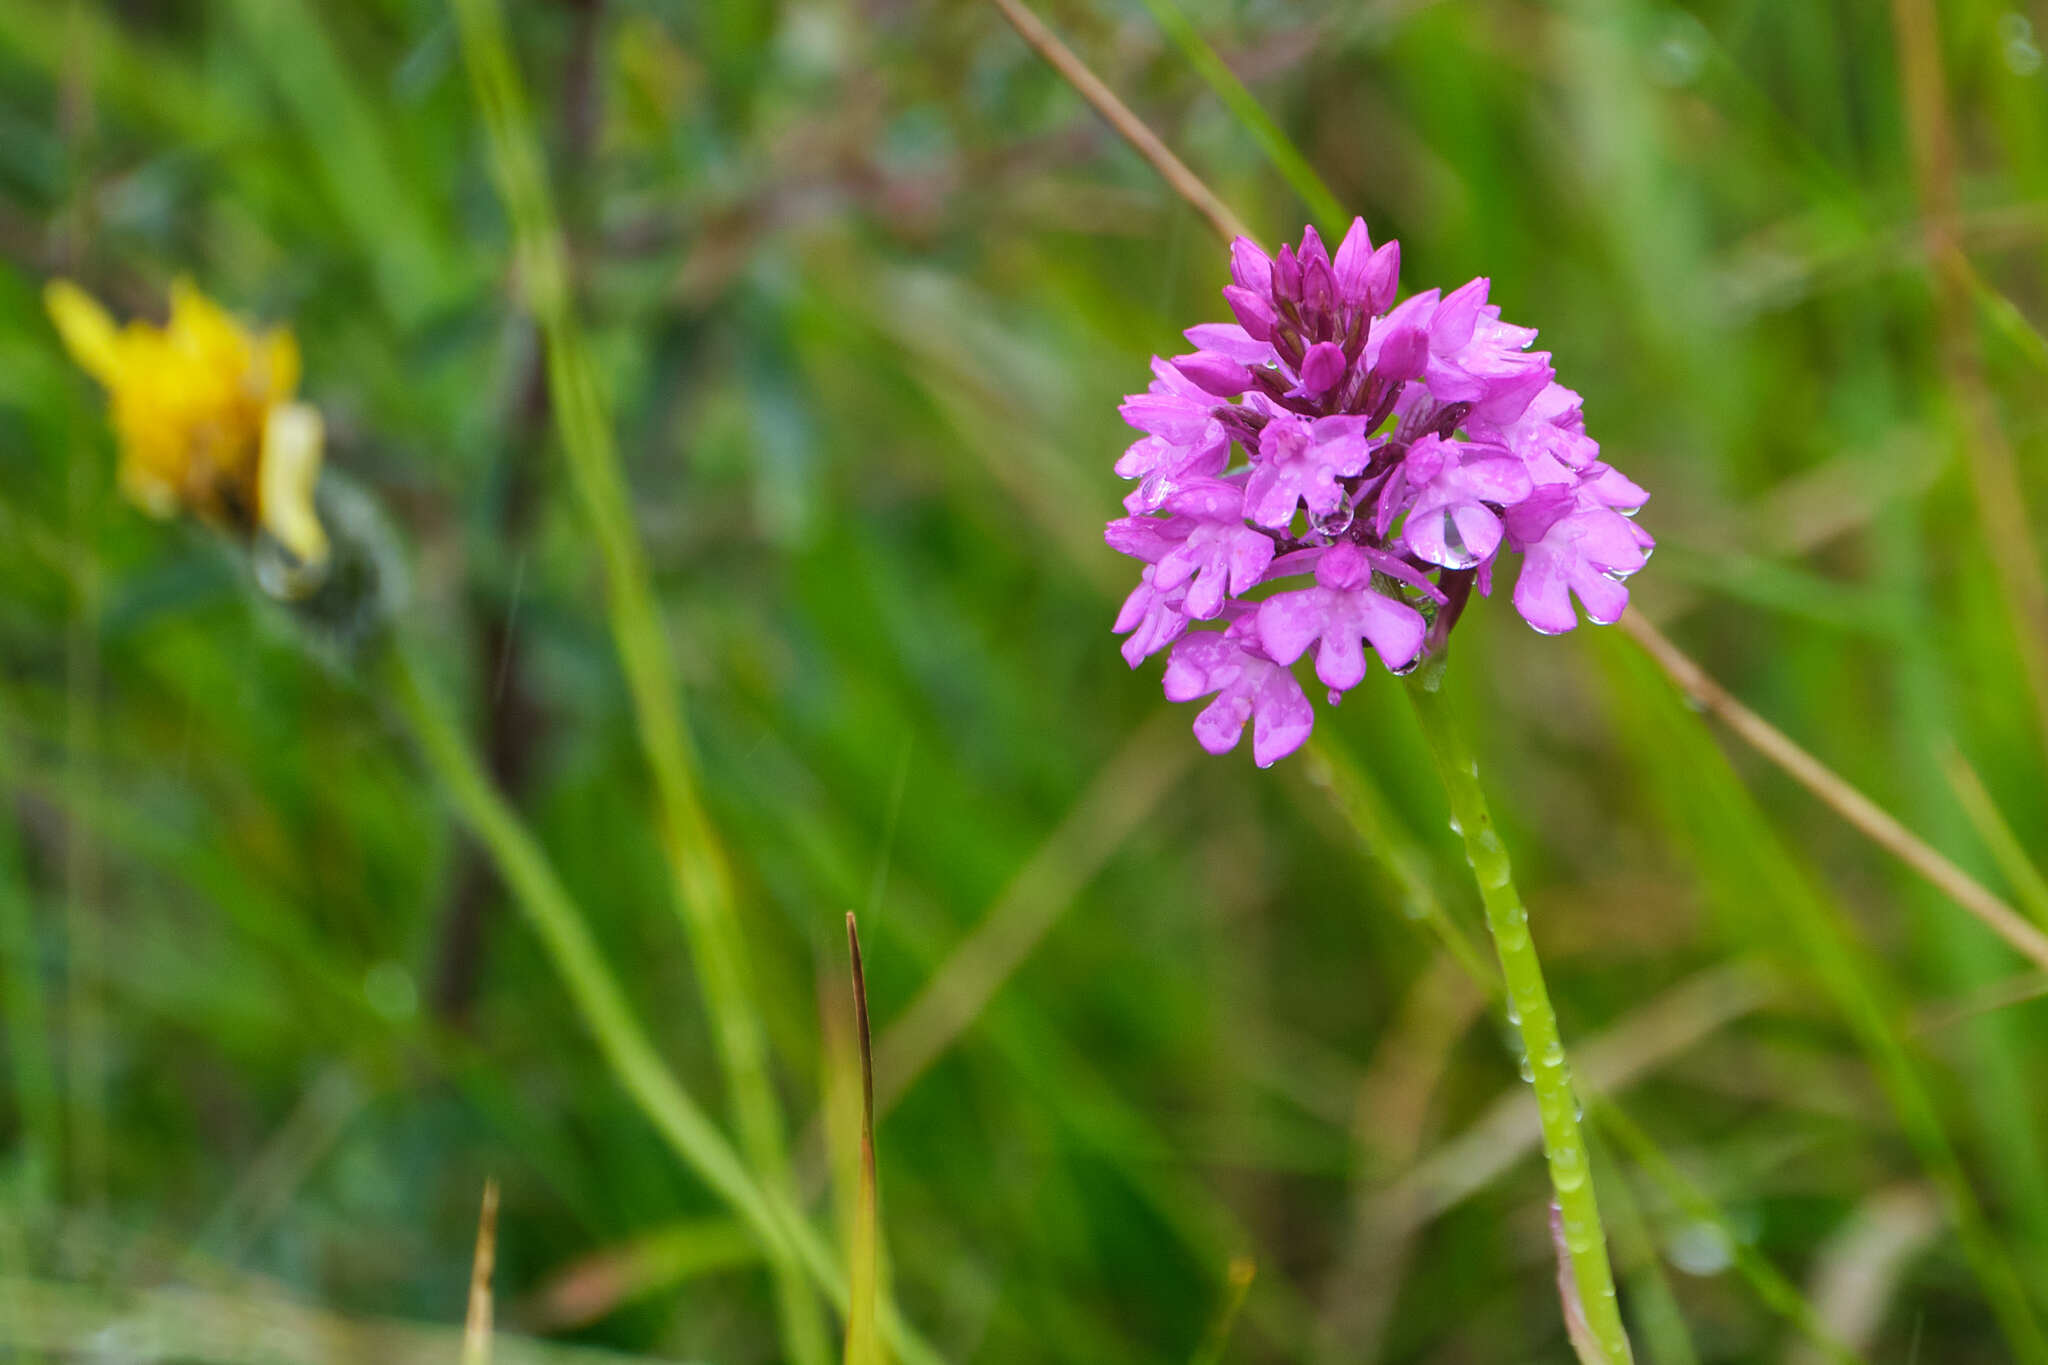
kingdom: Plantae
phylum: Tracheophyta
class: Liliopsida
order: Asparagales
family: Orchidaceae
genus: Anacamptis
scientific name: Anacamptis pyramidalis
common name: Pyramidal orchid
